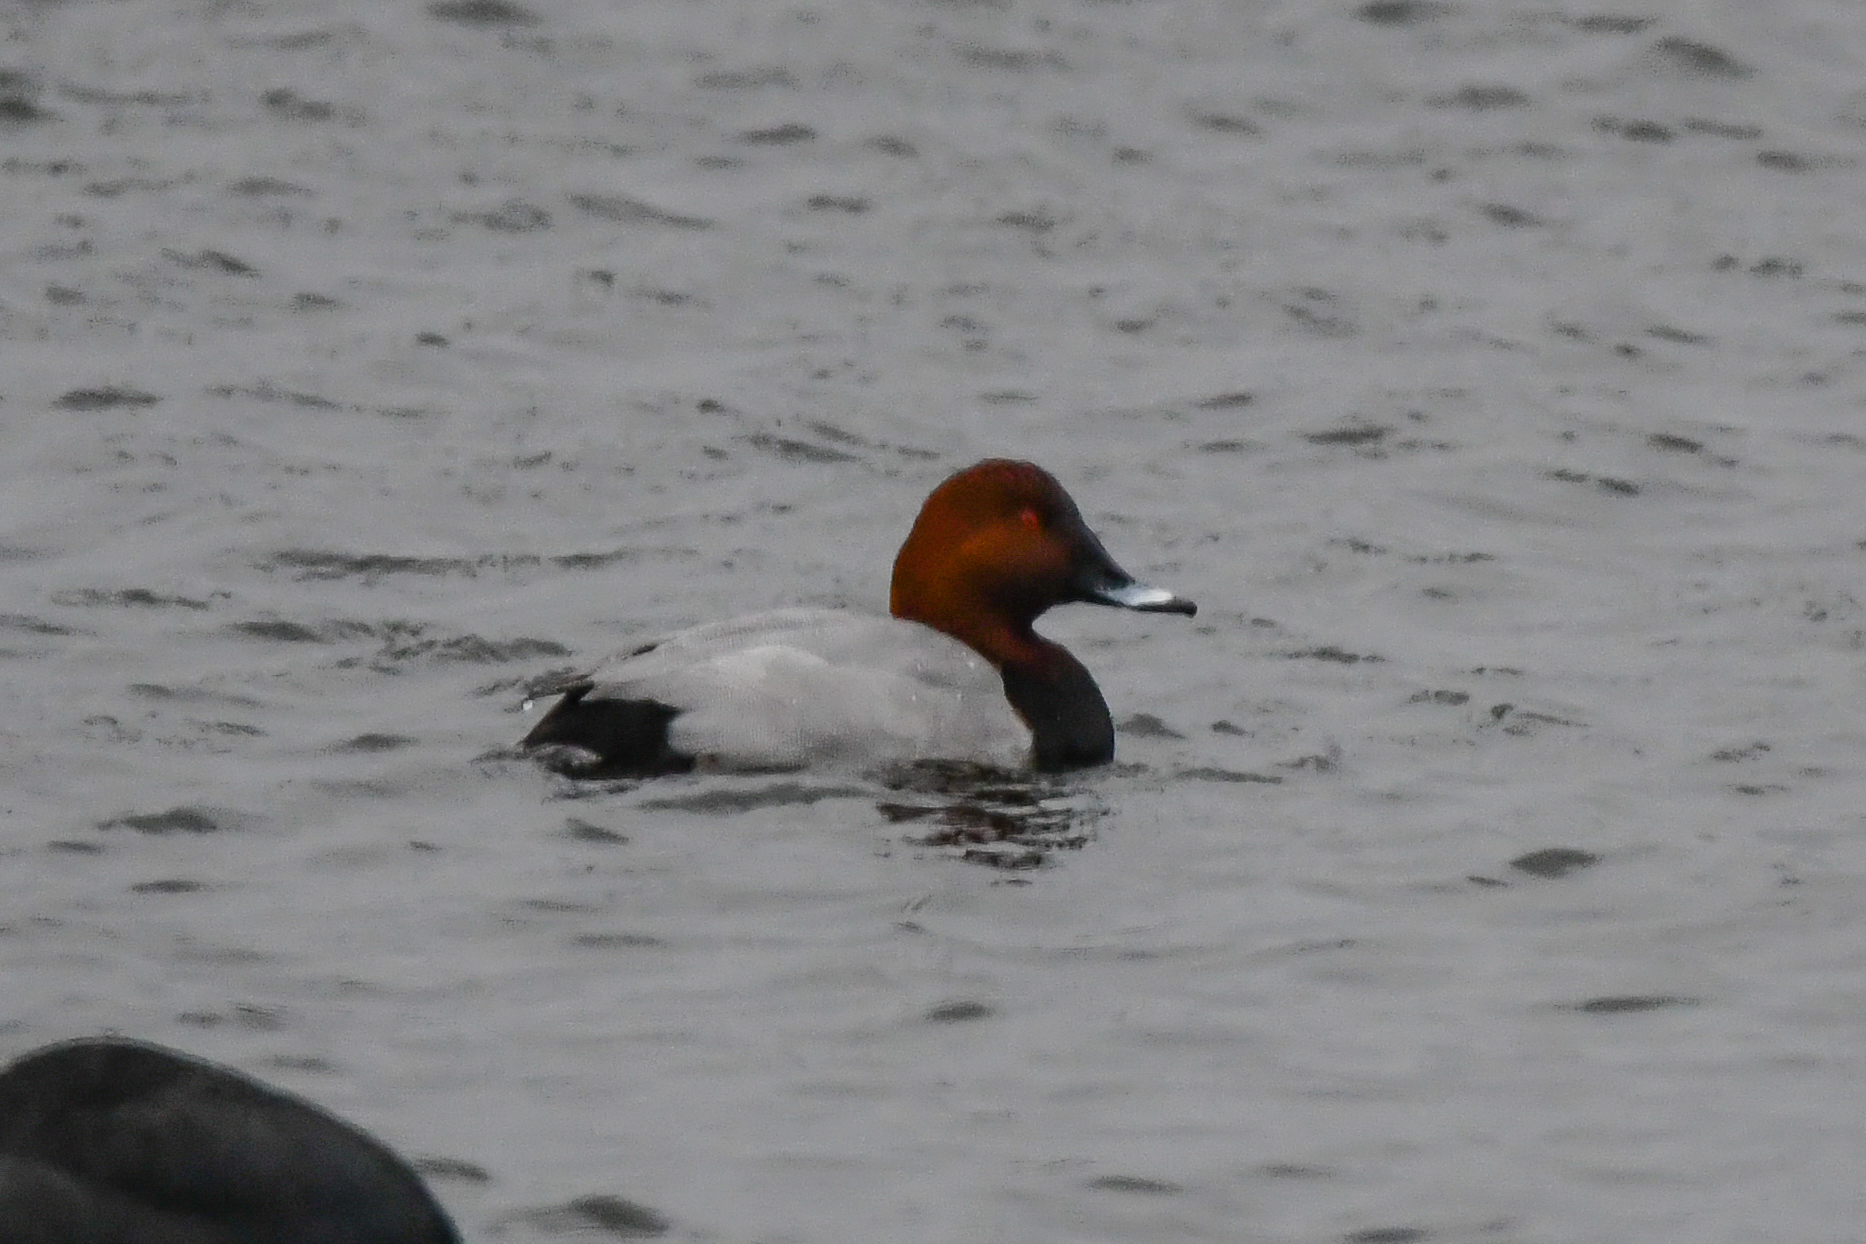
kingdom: Animalia
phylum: Chordata
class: Aves
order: Anseriformes
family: Anatidae
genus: Aythya
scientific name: Aythya ferina
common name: Common pochard
